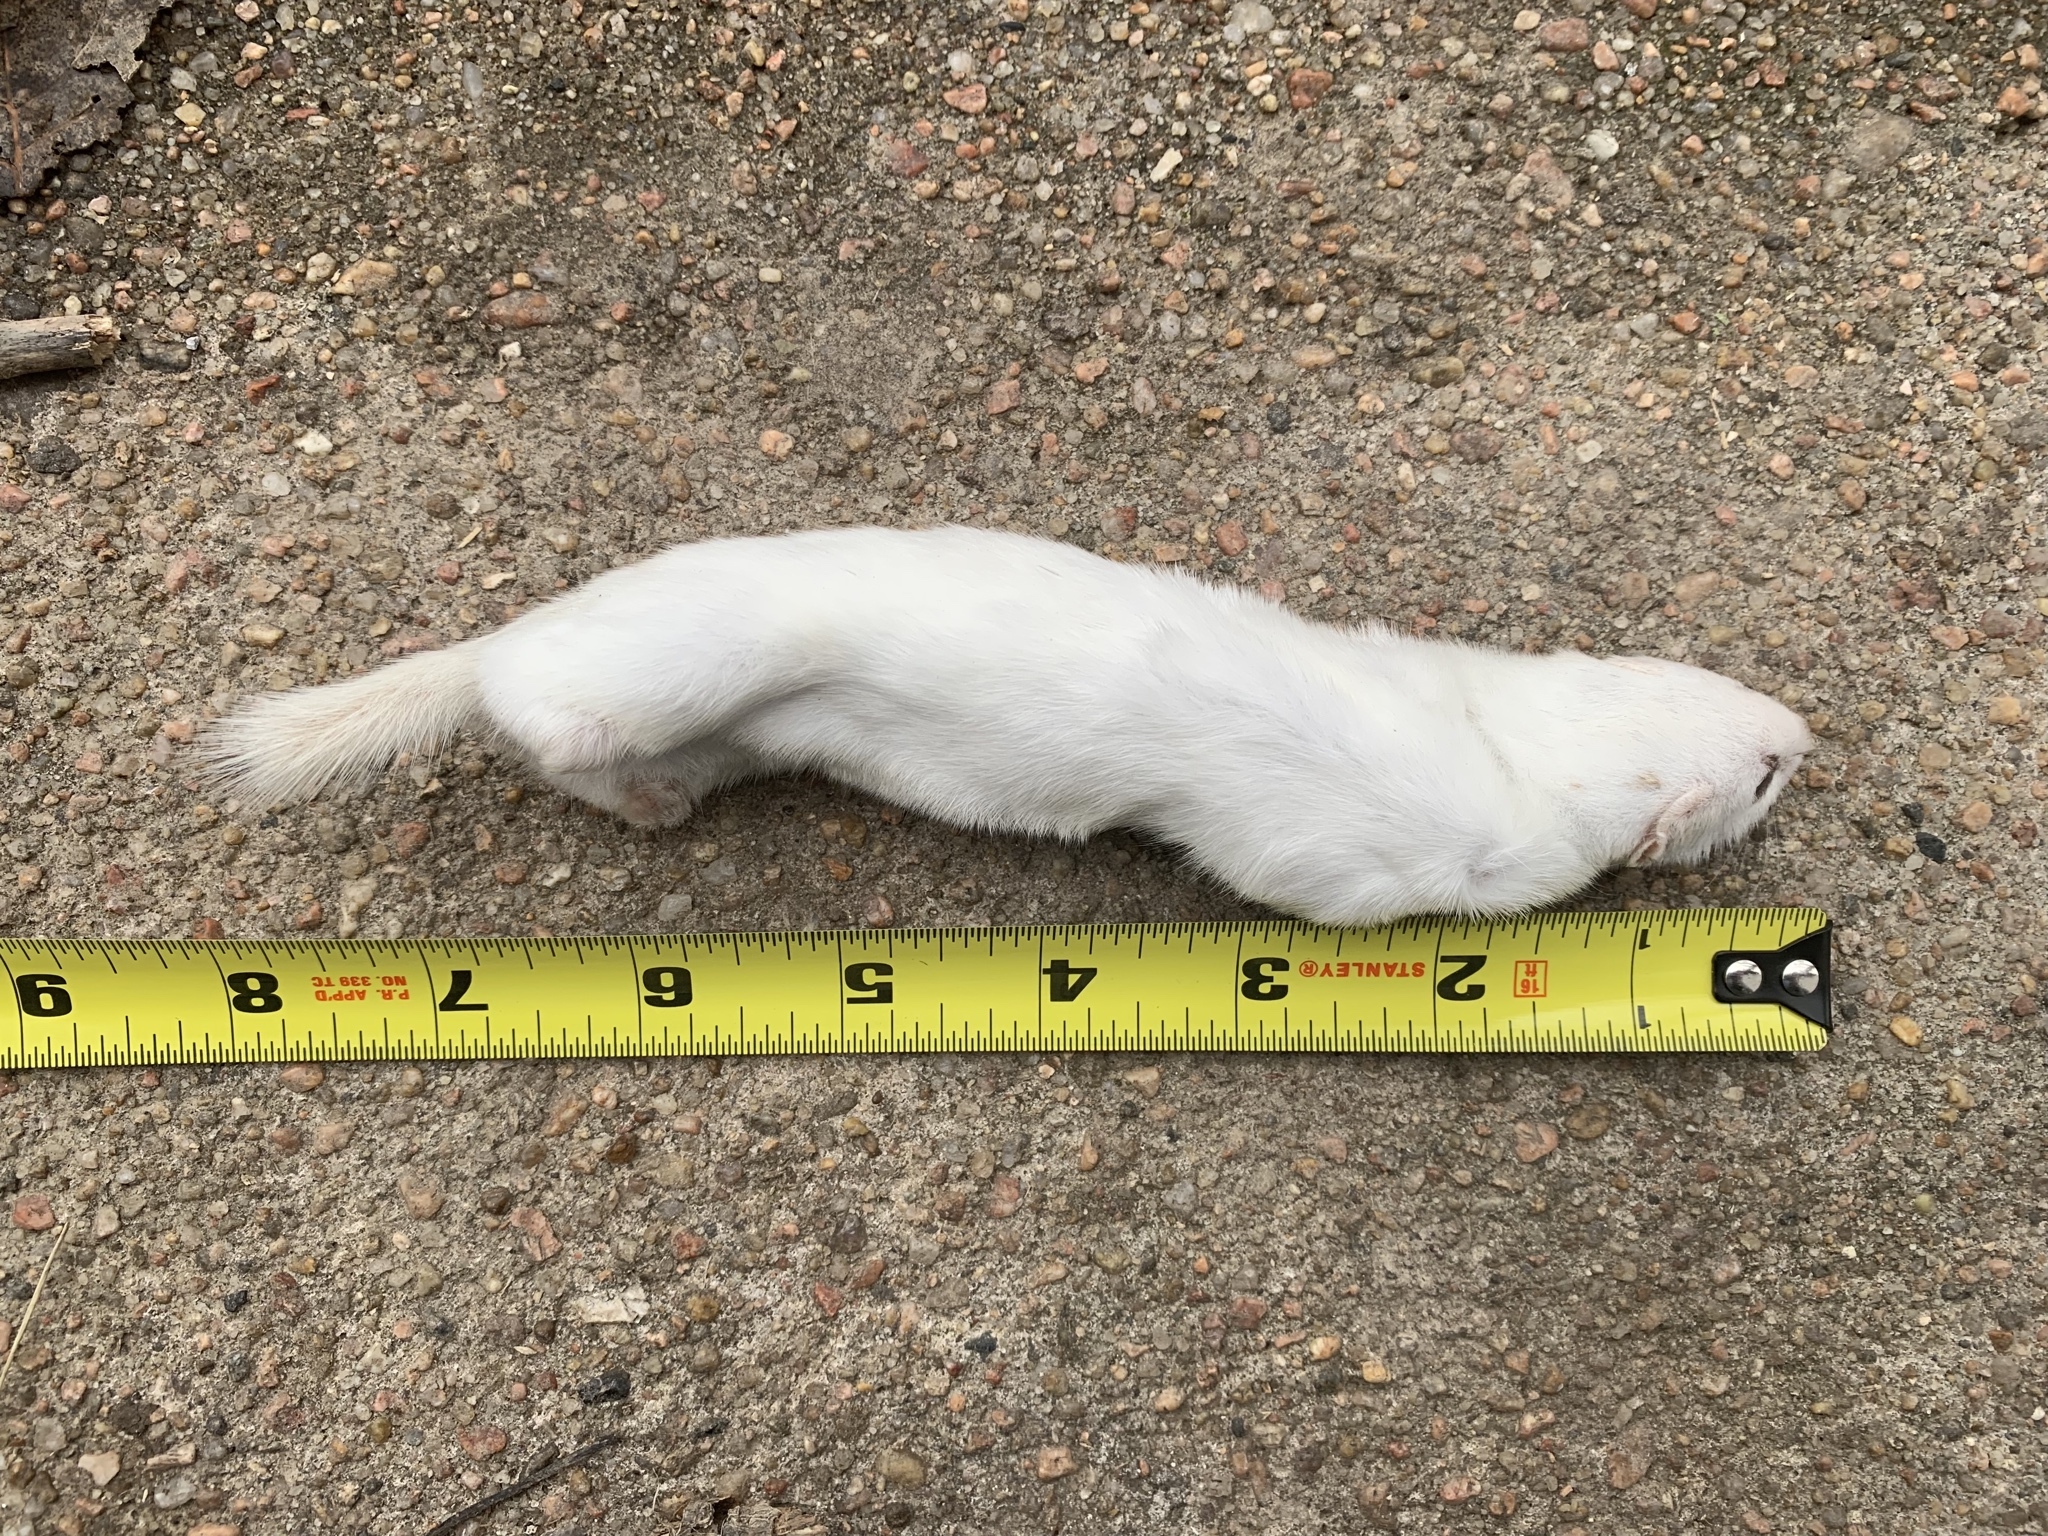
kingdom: Animalia
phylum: Chordata
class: Mammalia
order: Carnivora
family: Mustelidae
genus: Mustela
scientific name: Mustela nivalis
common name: Least weasel
